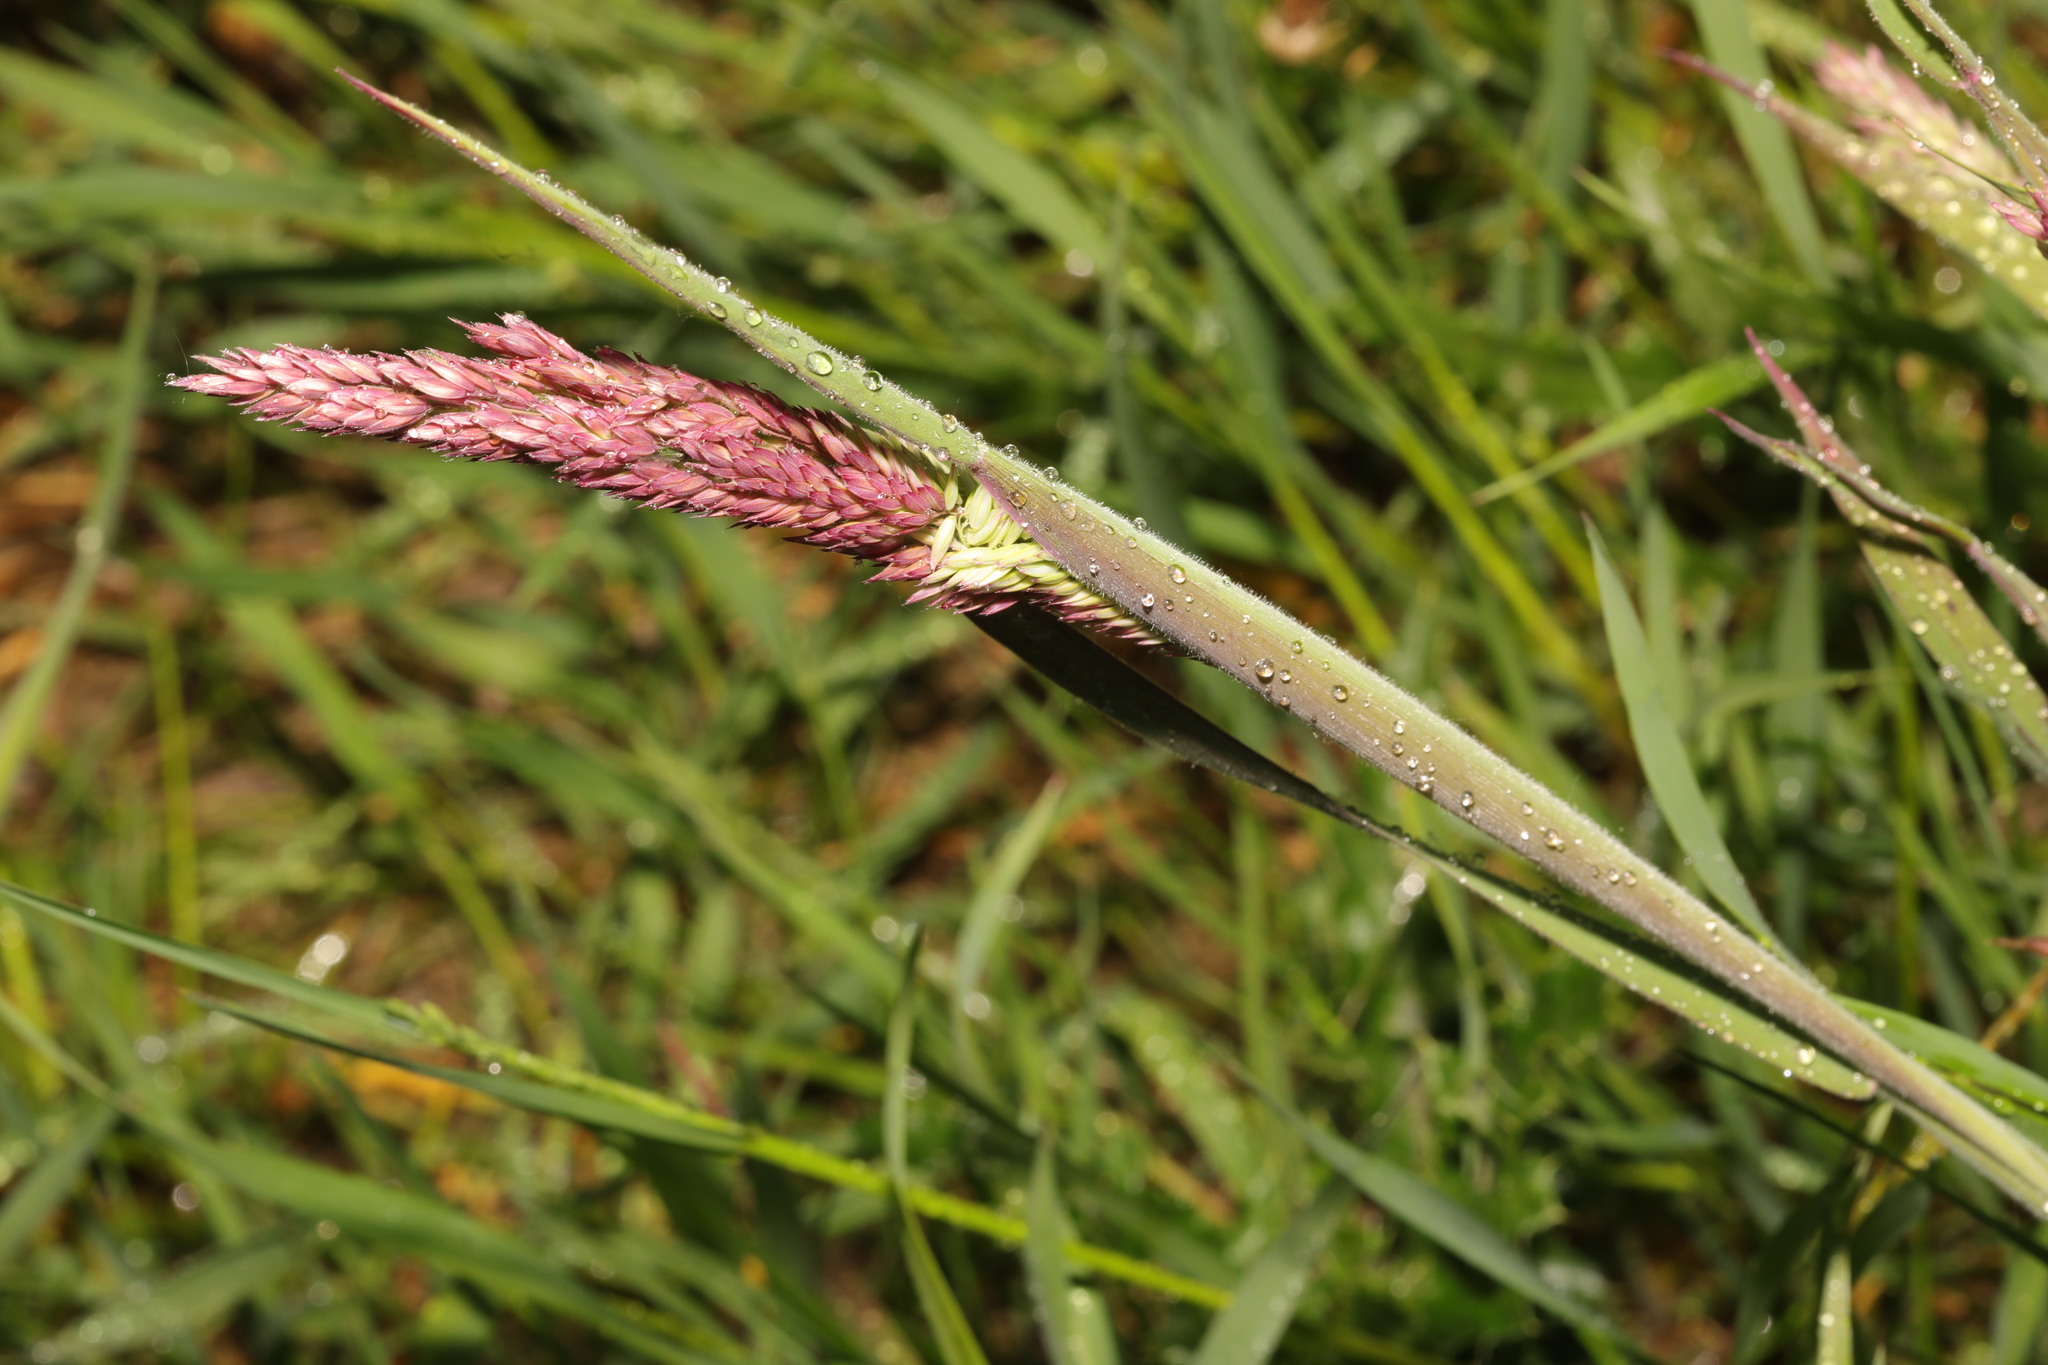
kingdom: Plantae
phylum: Tracheophyta
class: Liliopsida
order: Poales
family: Poaceae
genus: Holcus
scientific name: Holcus lanatus
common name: Yorkshire-fog
